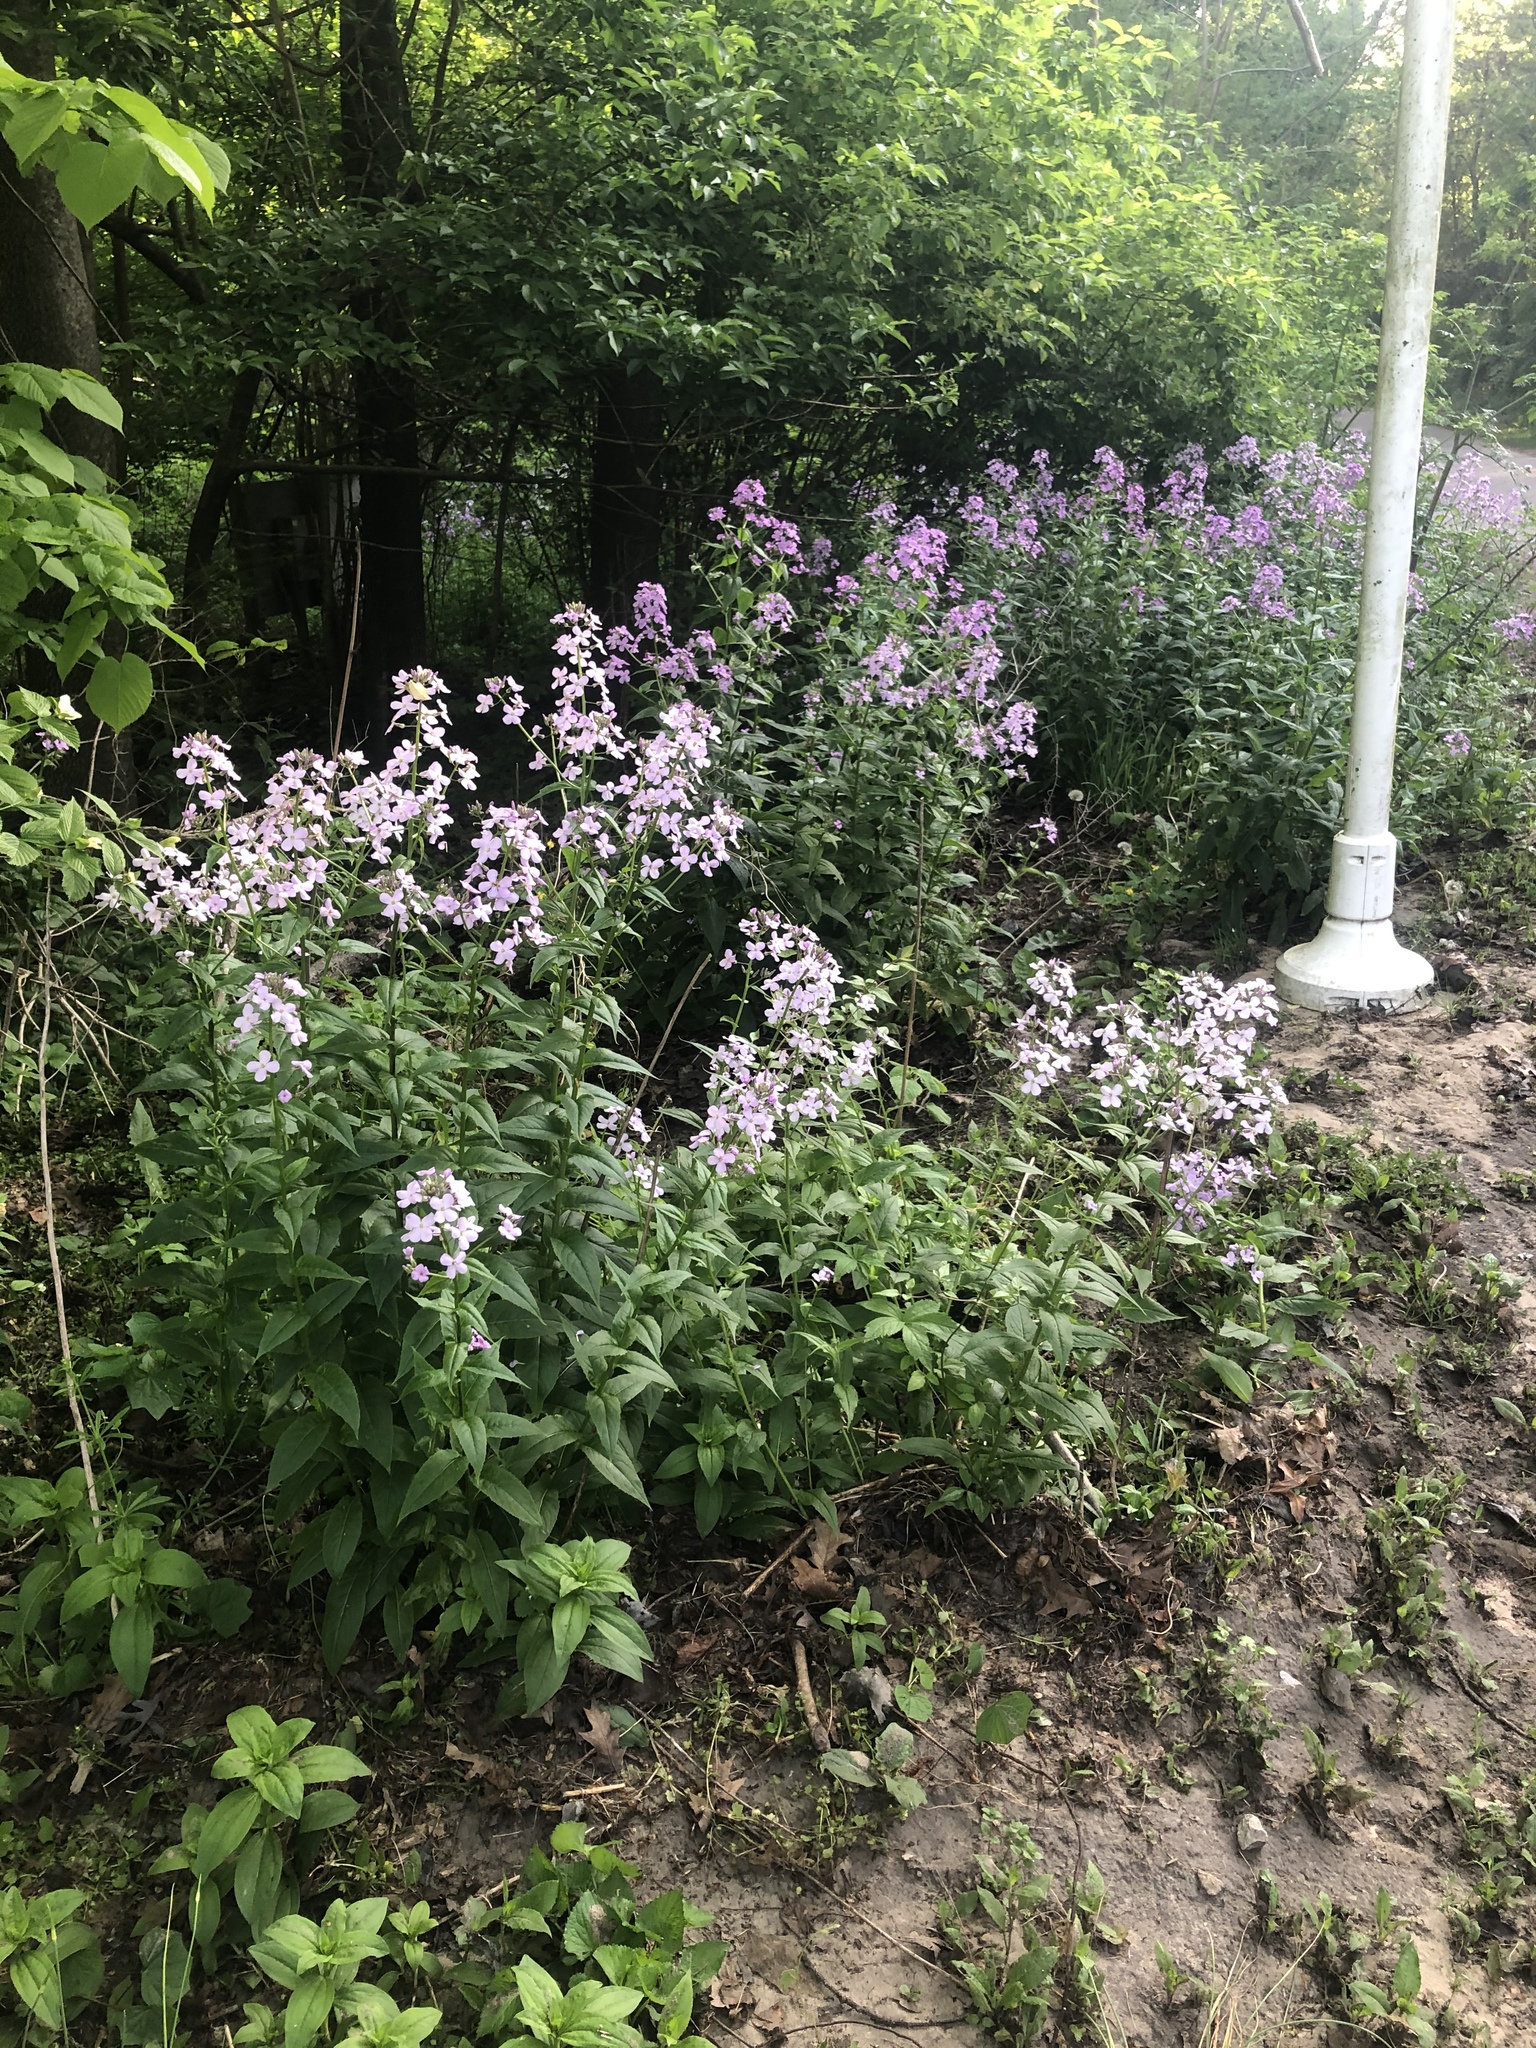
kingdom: Plantae
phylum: Tracheophyta
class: Magnoliopsida
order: Brassicales
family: Brassicaceae
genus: Hesperis
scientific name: Hesperis matronalis
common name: Dame's-violet
